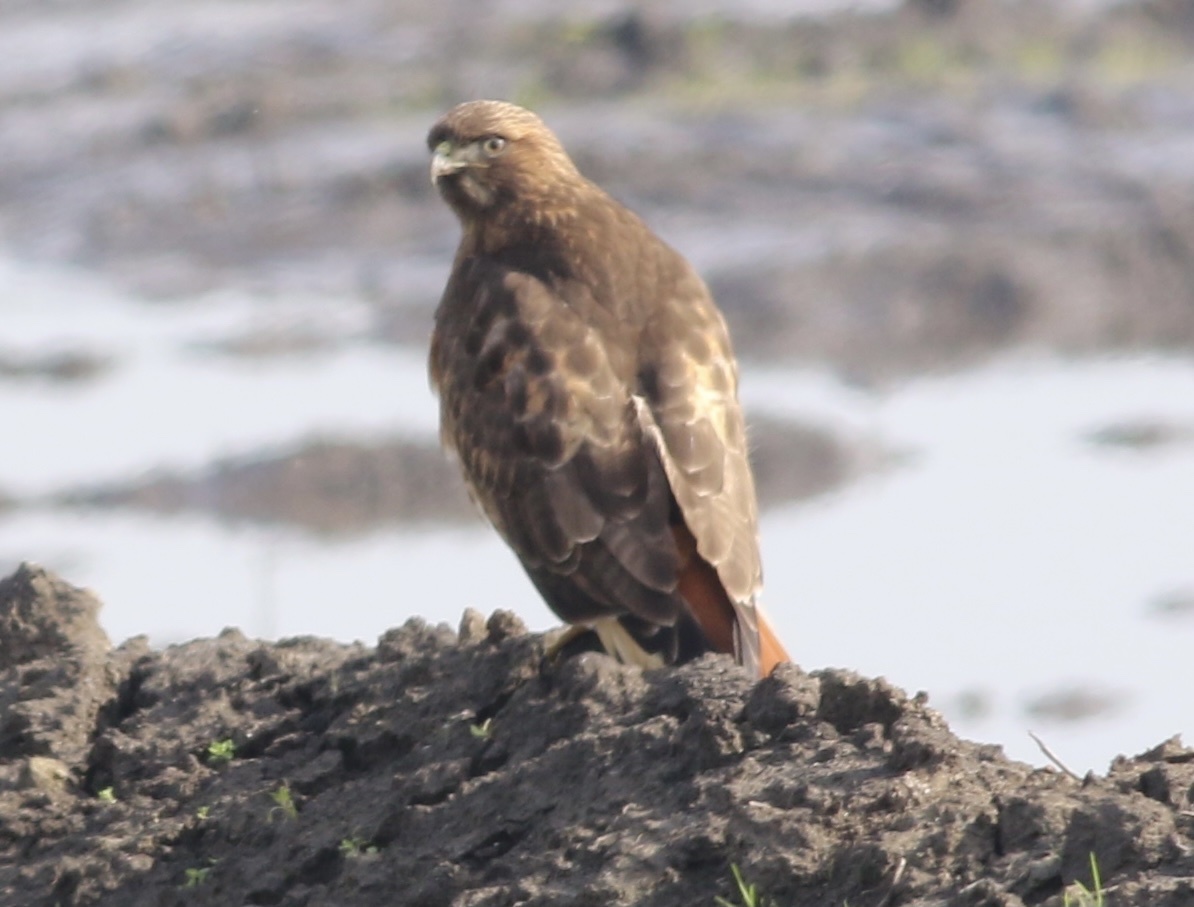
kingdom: Animalia
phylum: Chordata
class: Aves
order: Accipitriformes
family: Accipitridae
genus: Buteo
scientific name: Buteo jamaicensis
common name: Red-tailed hawk
